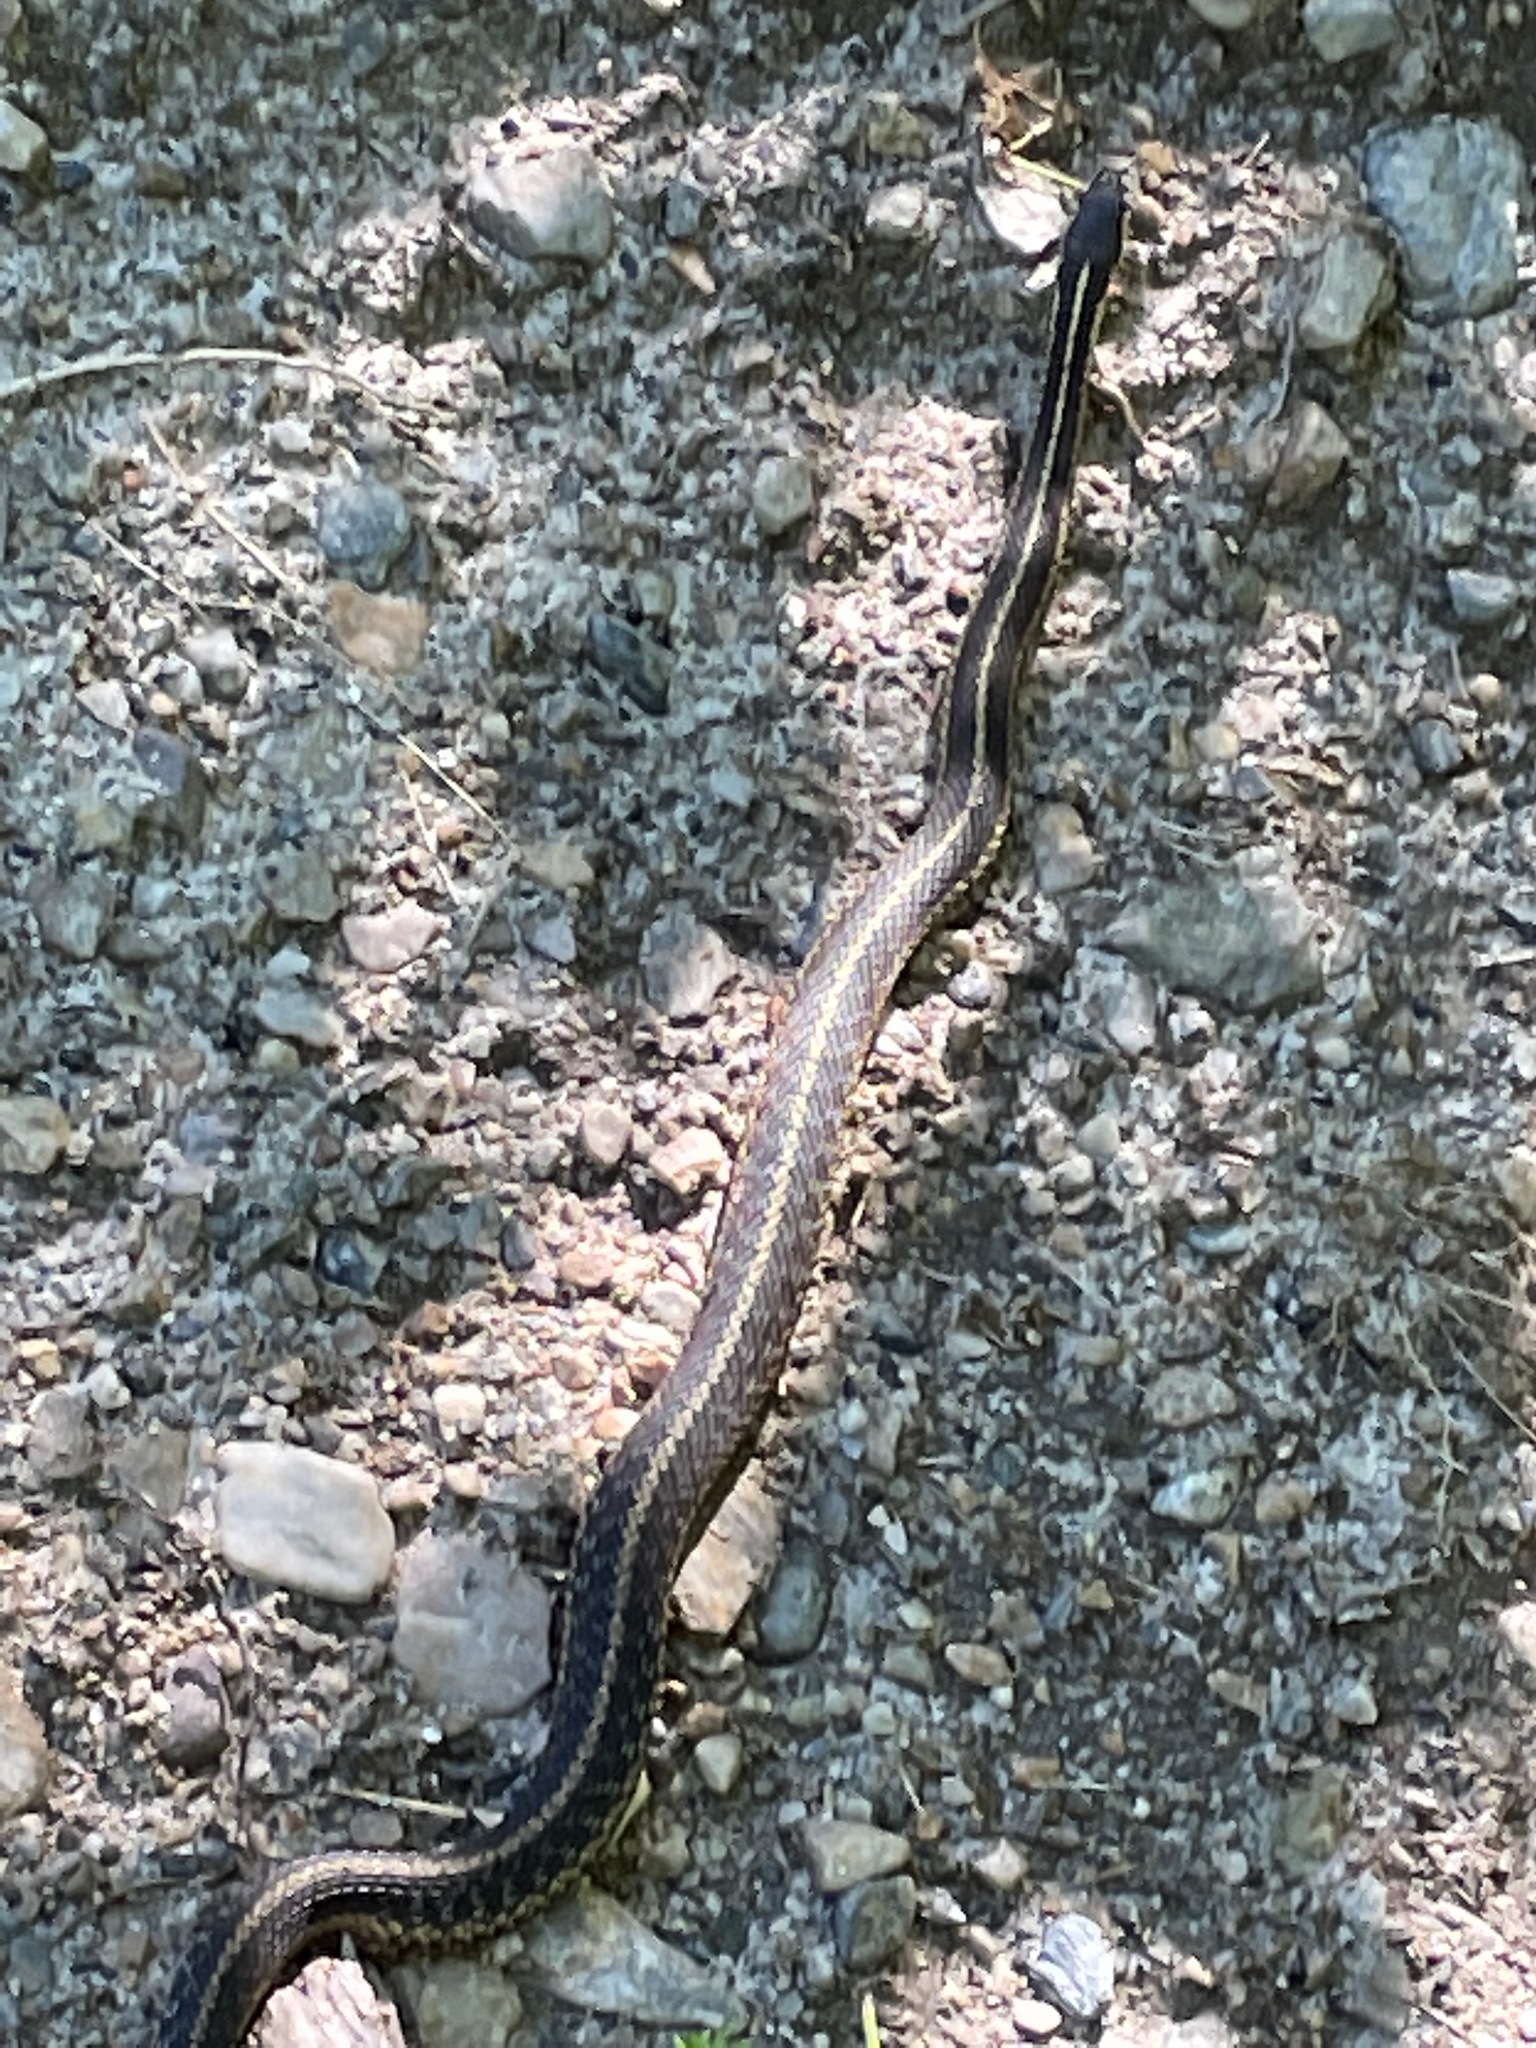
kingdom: Animalia
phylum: Chordata
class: Squamata
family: Colubridae
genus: Thamnophis
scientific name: Thamnophis sirtalis
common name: Common garter snake
